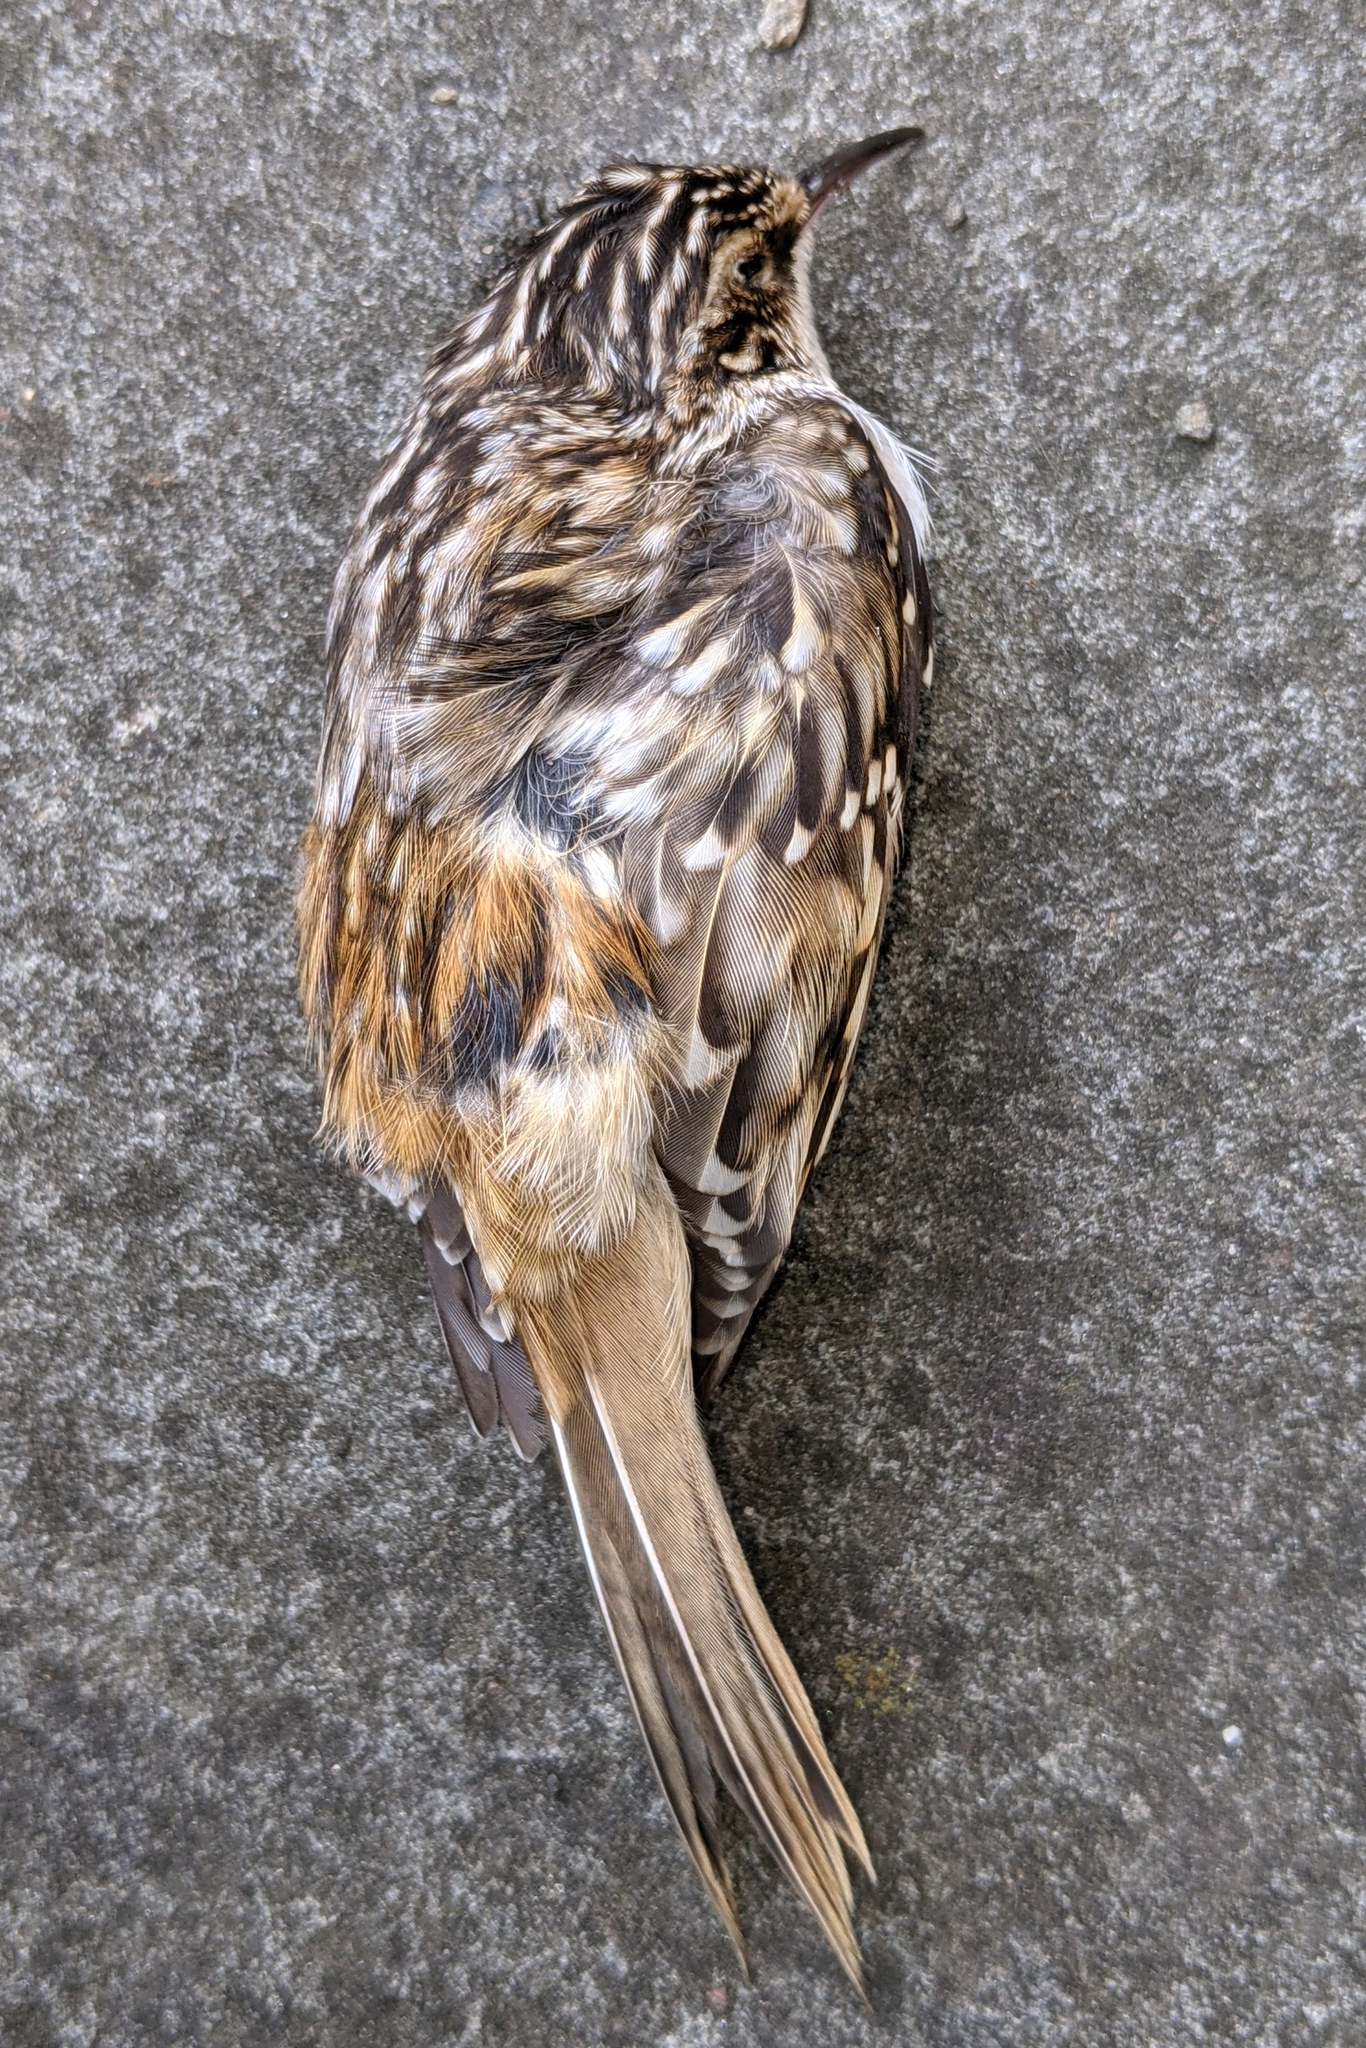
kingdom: Animalia
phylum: Chordata
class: Aves
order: Passeriformes
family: Certhiidae
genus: Certhia
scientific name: Certhia americana
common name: Brown creeper
